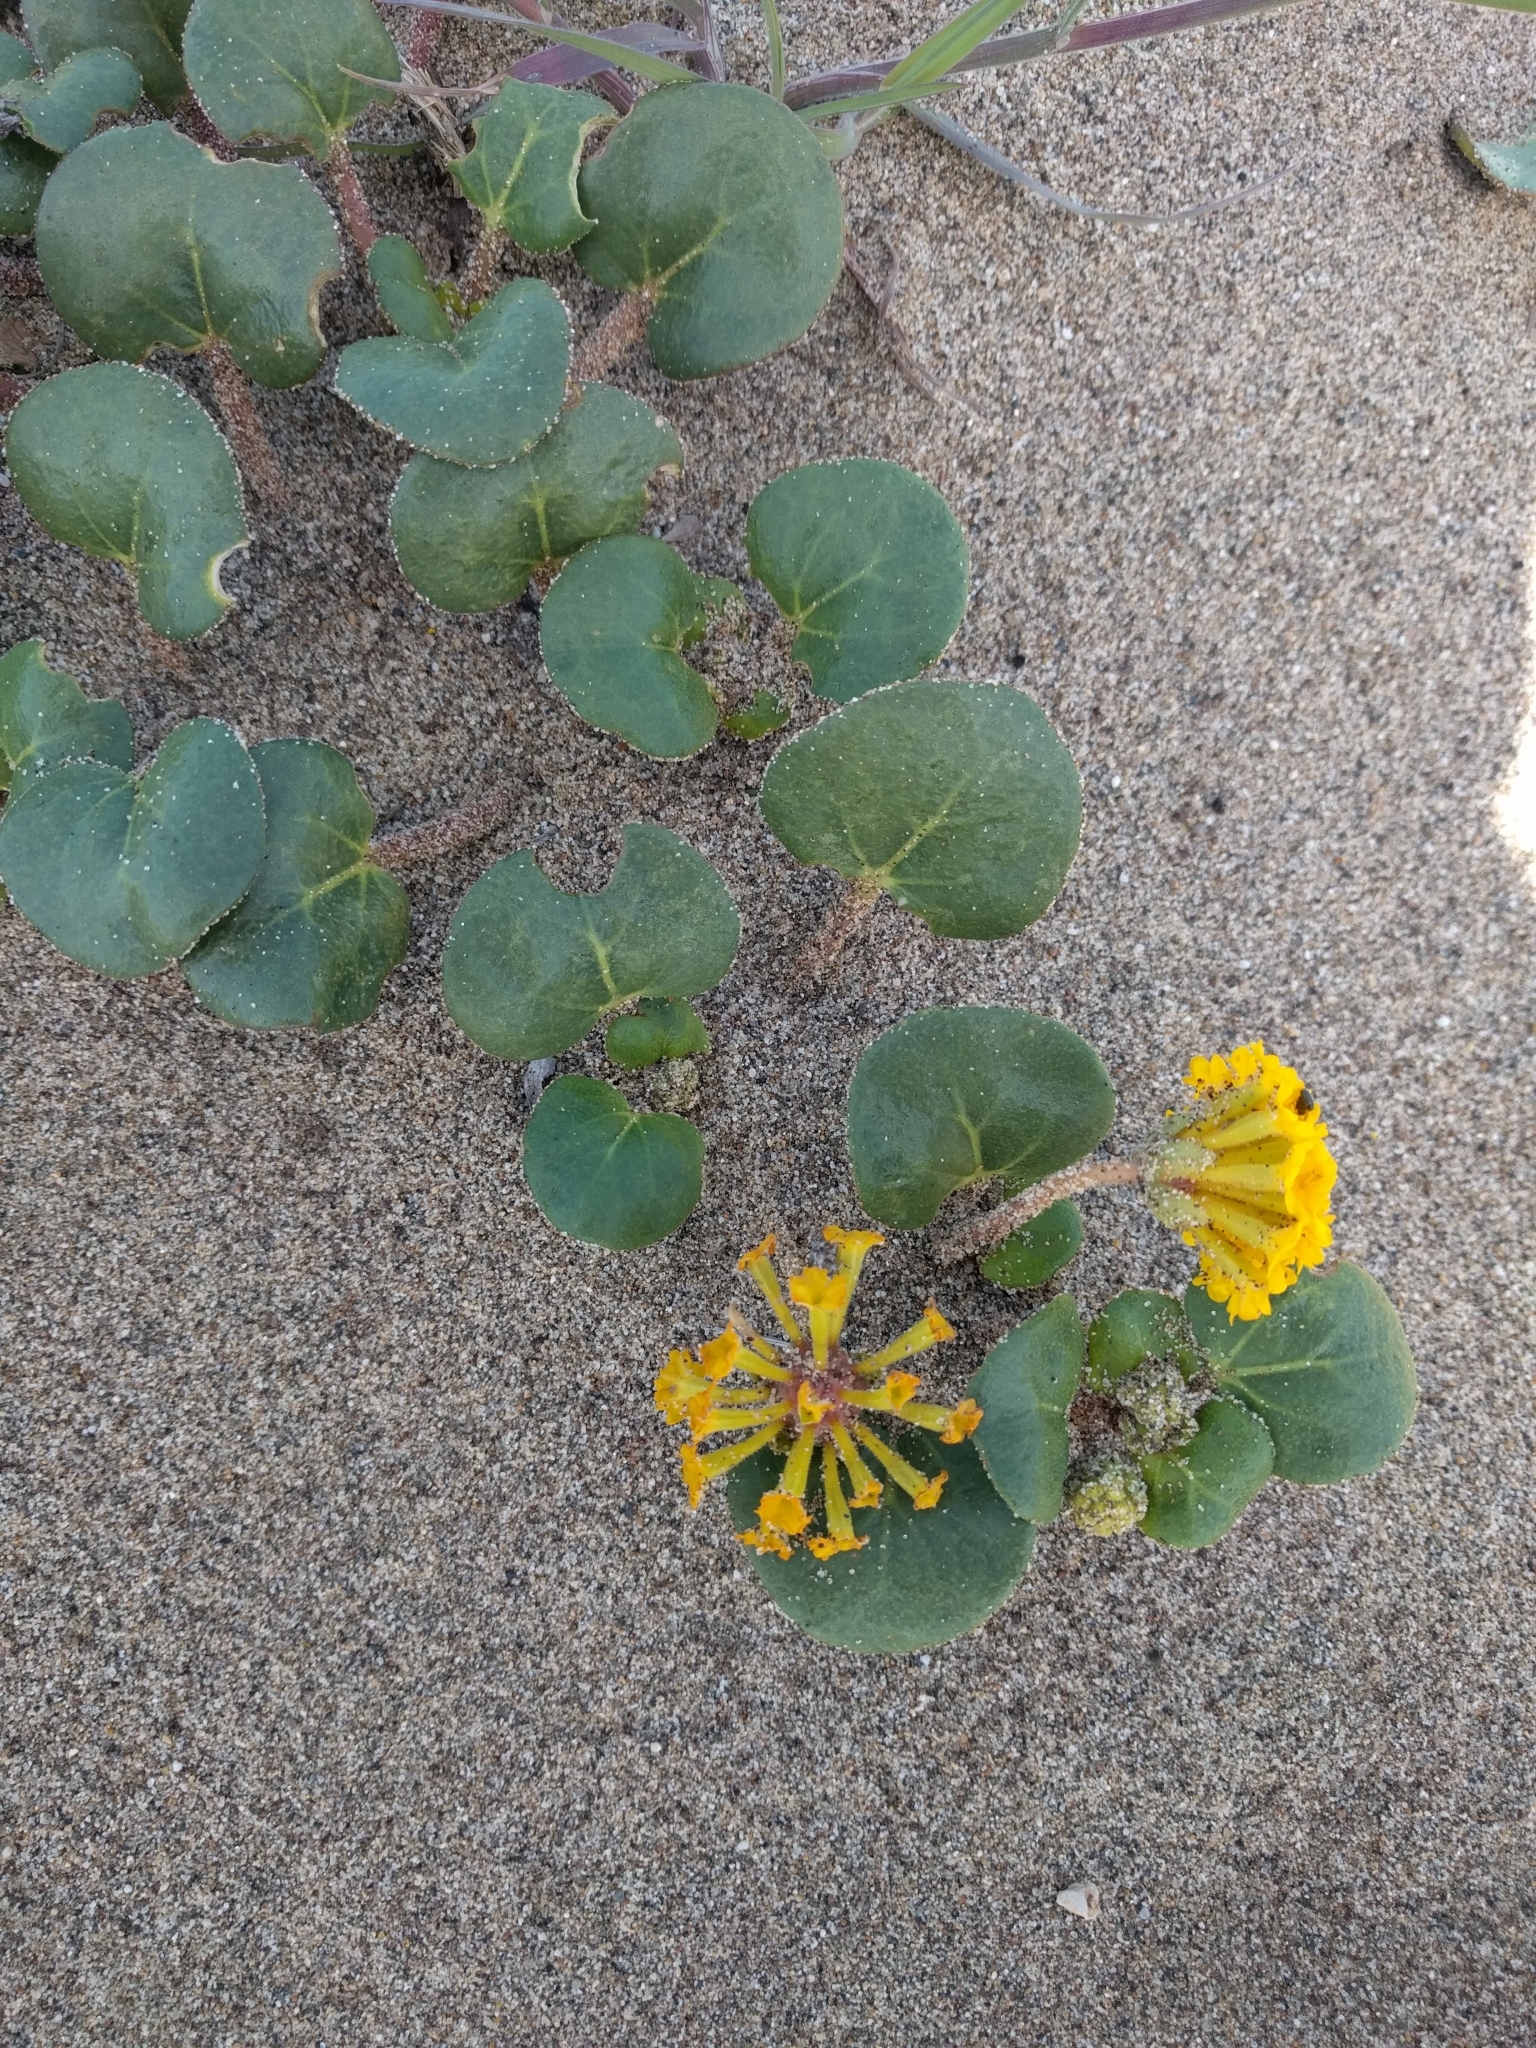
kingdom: Plantae
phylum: Tracheophyta
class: Magnoliopsida
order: Caryophyllales
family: Nyctaginaceae
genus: Abronia
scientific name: Abronia latifolia
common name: Yellow sand-verbena
